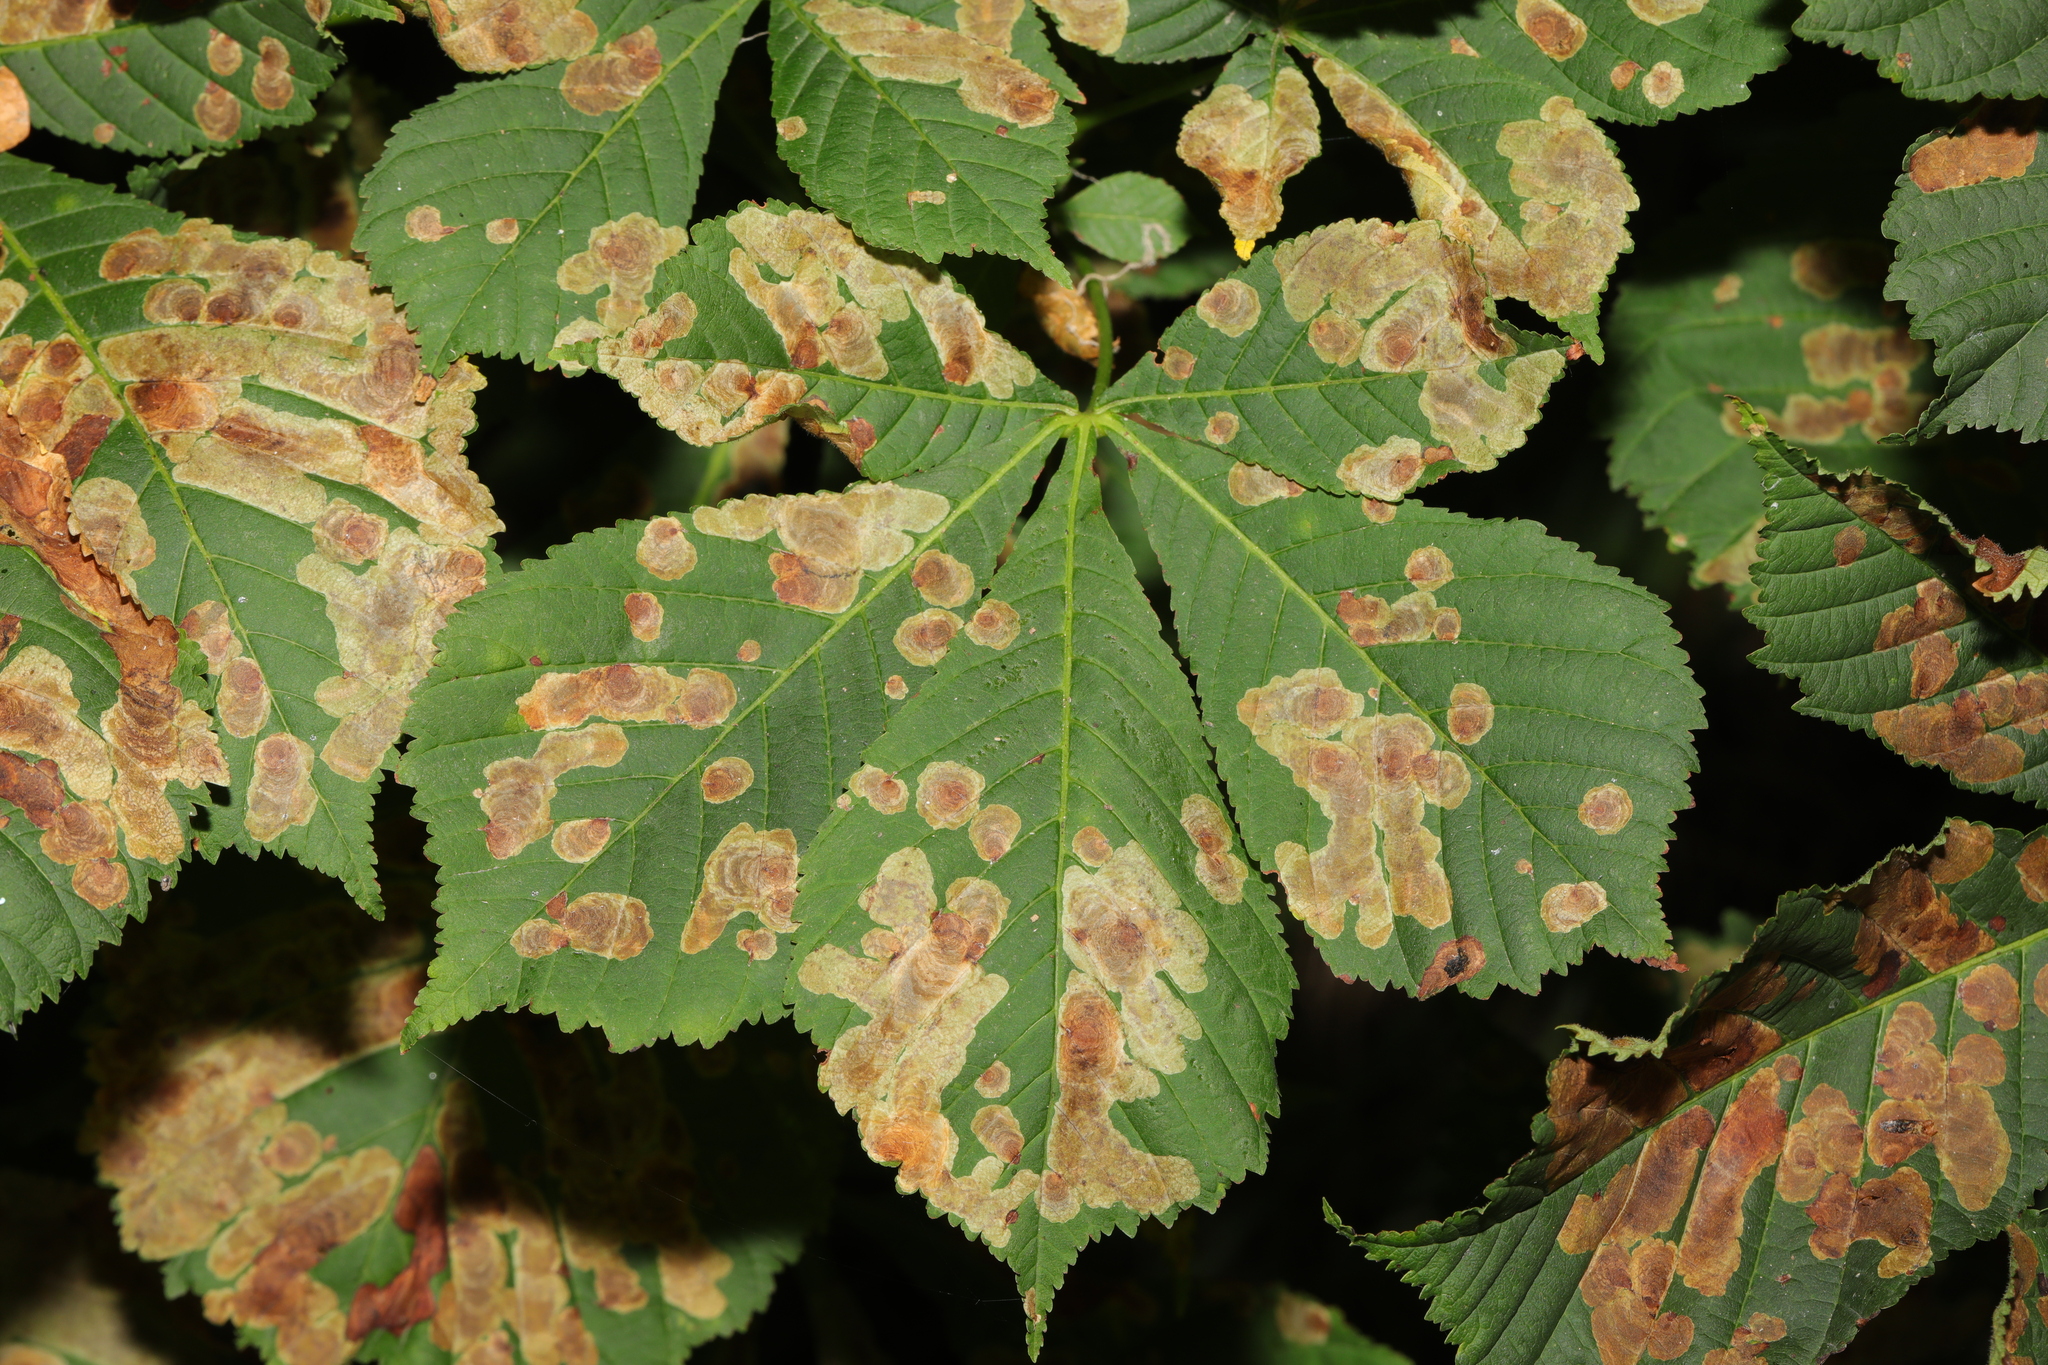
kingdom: Plantae
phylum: Tracheophyta
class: Magnoliopsida
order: Sapindales
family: Sapindaceae
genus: Aesculus
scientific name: Aesculus hippocastanum
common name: Horse-chestnut
